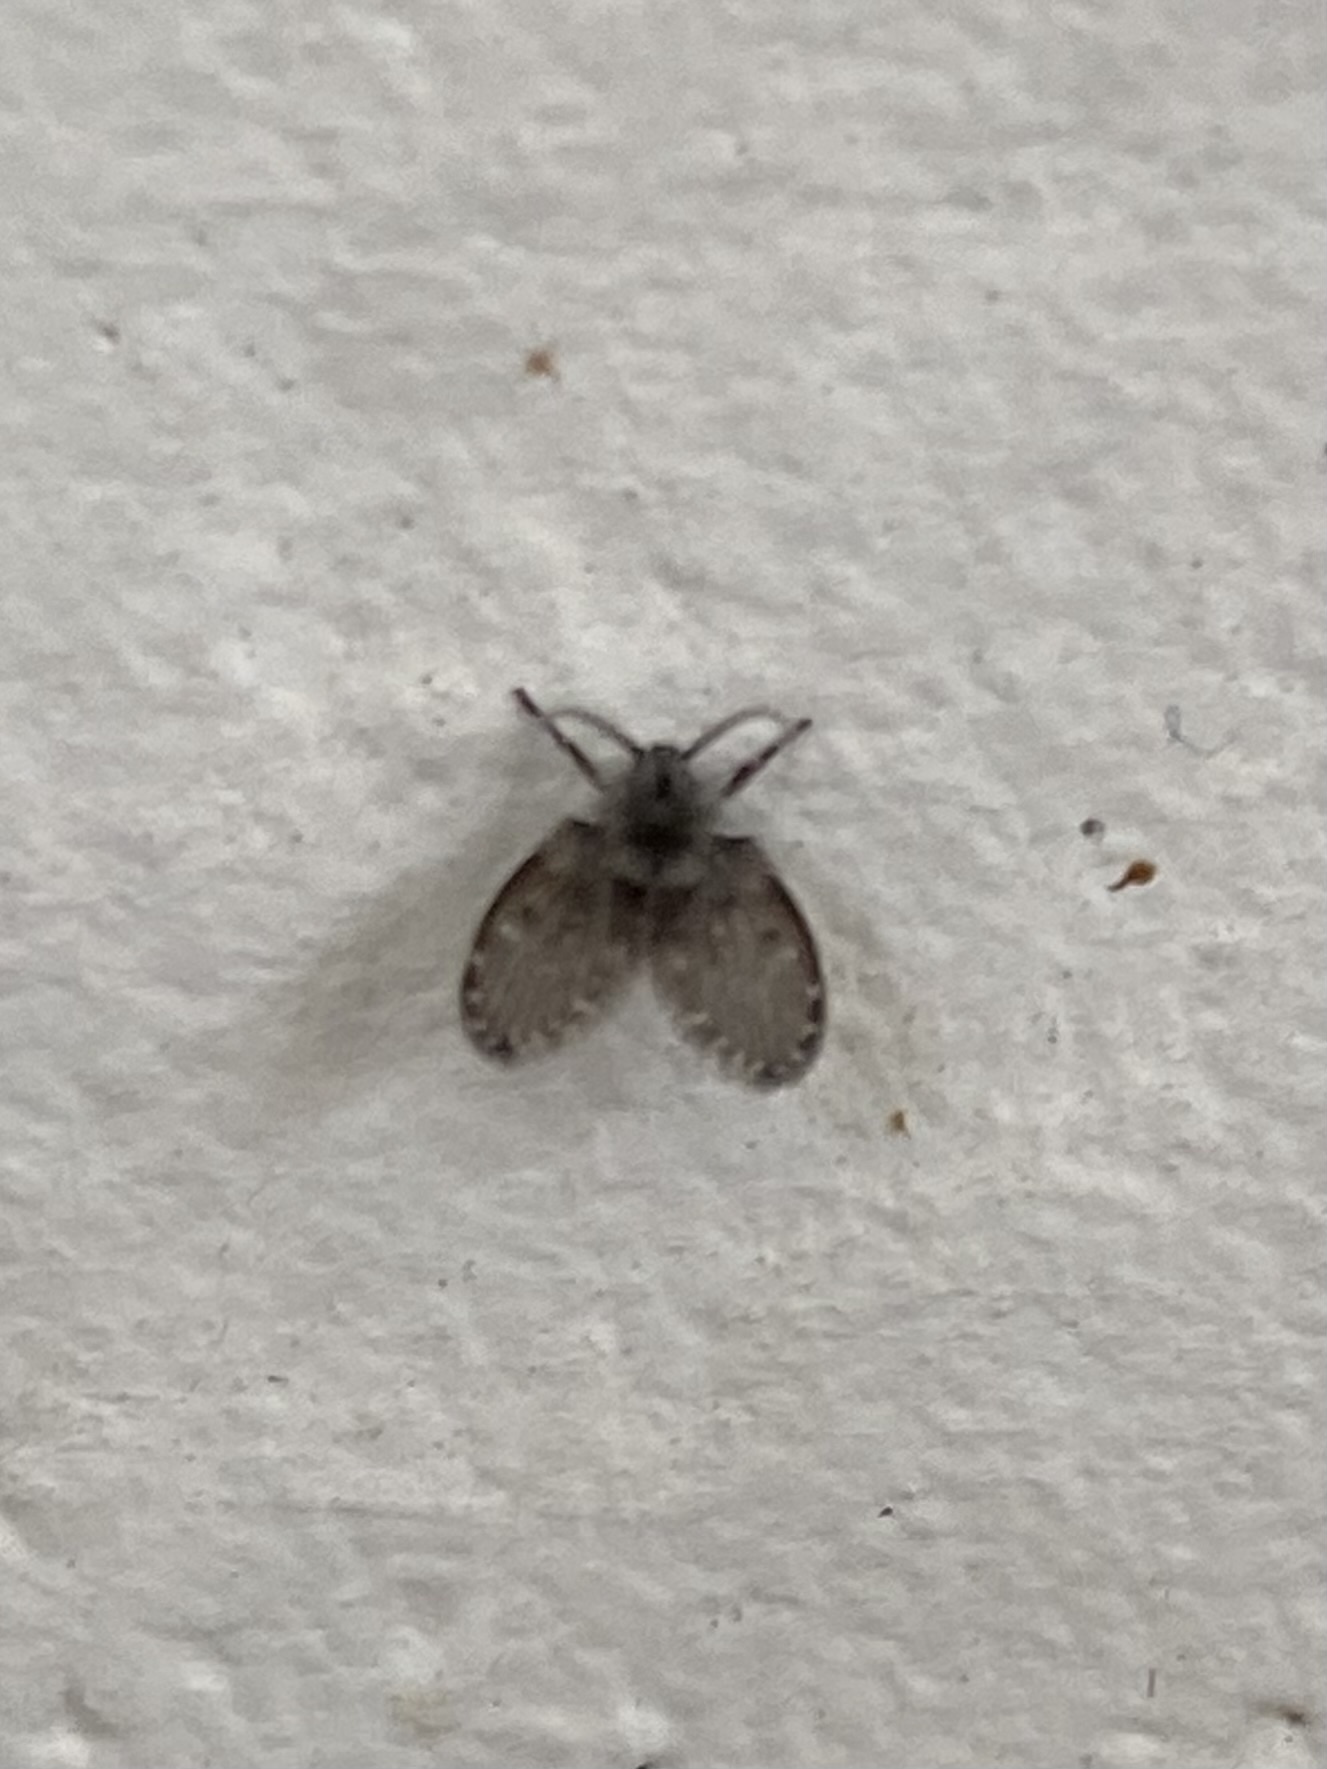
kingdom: Animalia
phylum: Arthropoda
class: Insecta
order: Diptera
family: Psychodidae
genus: Clogmia
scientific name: Clogmia albipunctatus
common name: White-spotted moth fly
